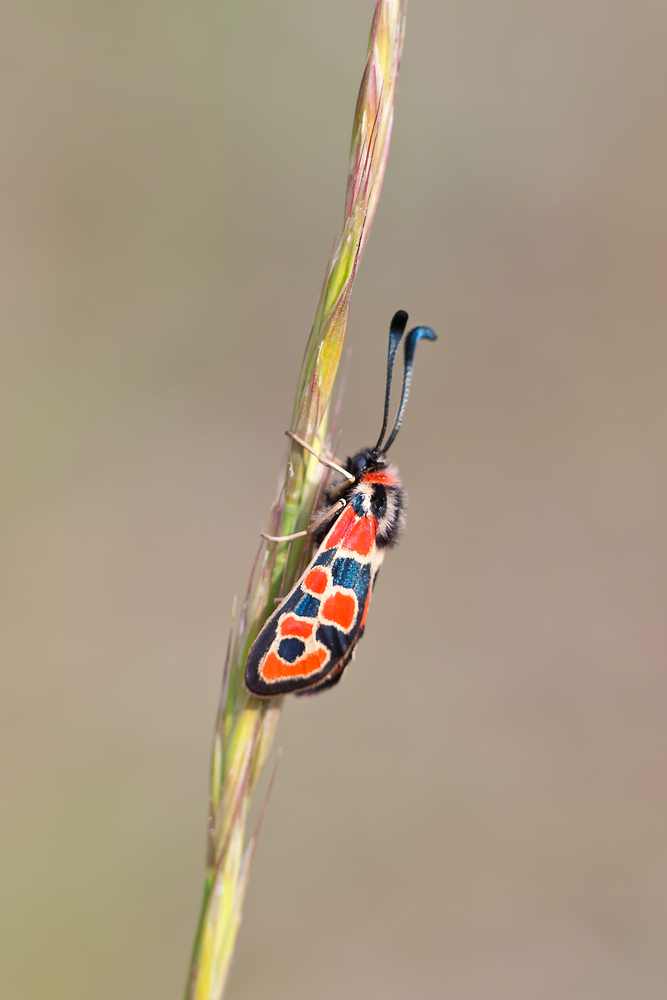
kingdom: Animalia
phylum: Arthropoda
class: Insecta
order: Lepidoptera
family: Zygaenidae
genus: Zygaena
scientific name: Zygaena fausta
